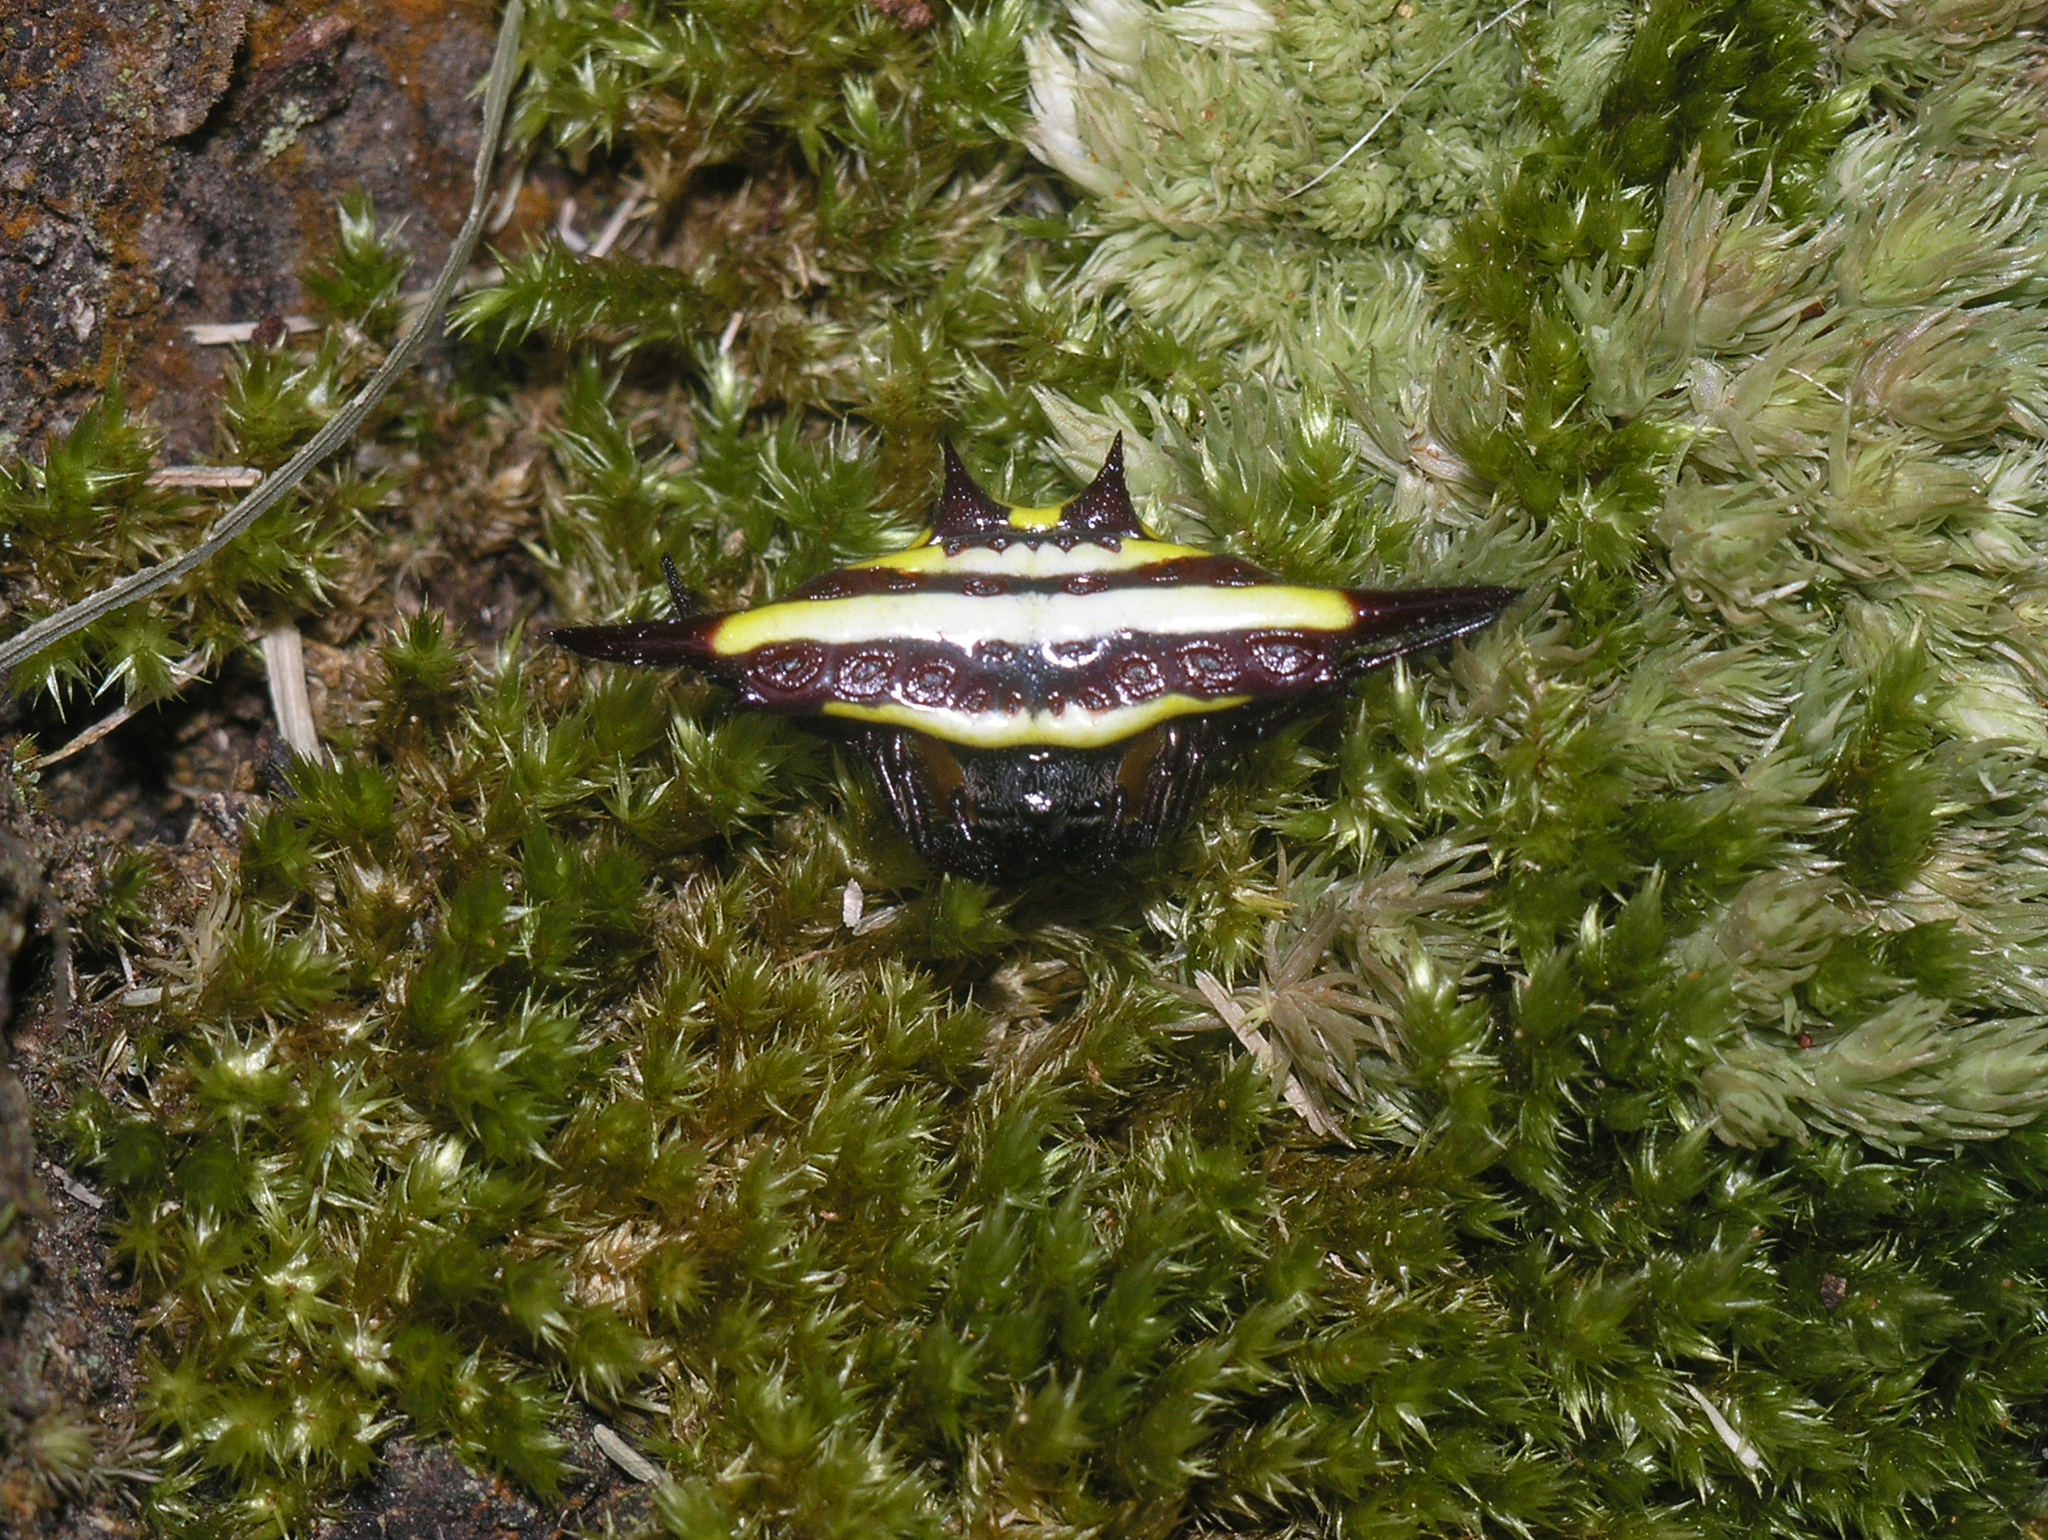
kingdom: Animalia
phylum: Arthropoda
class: Arachnida
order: Araneae
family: Araneidae
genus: Gasteracantha
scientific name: Gasteracantha transversa
